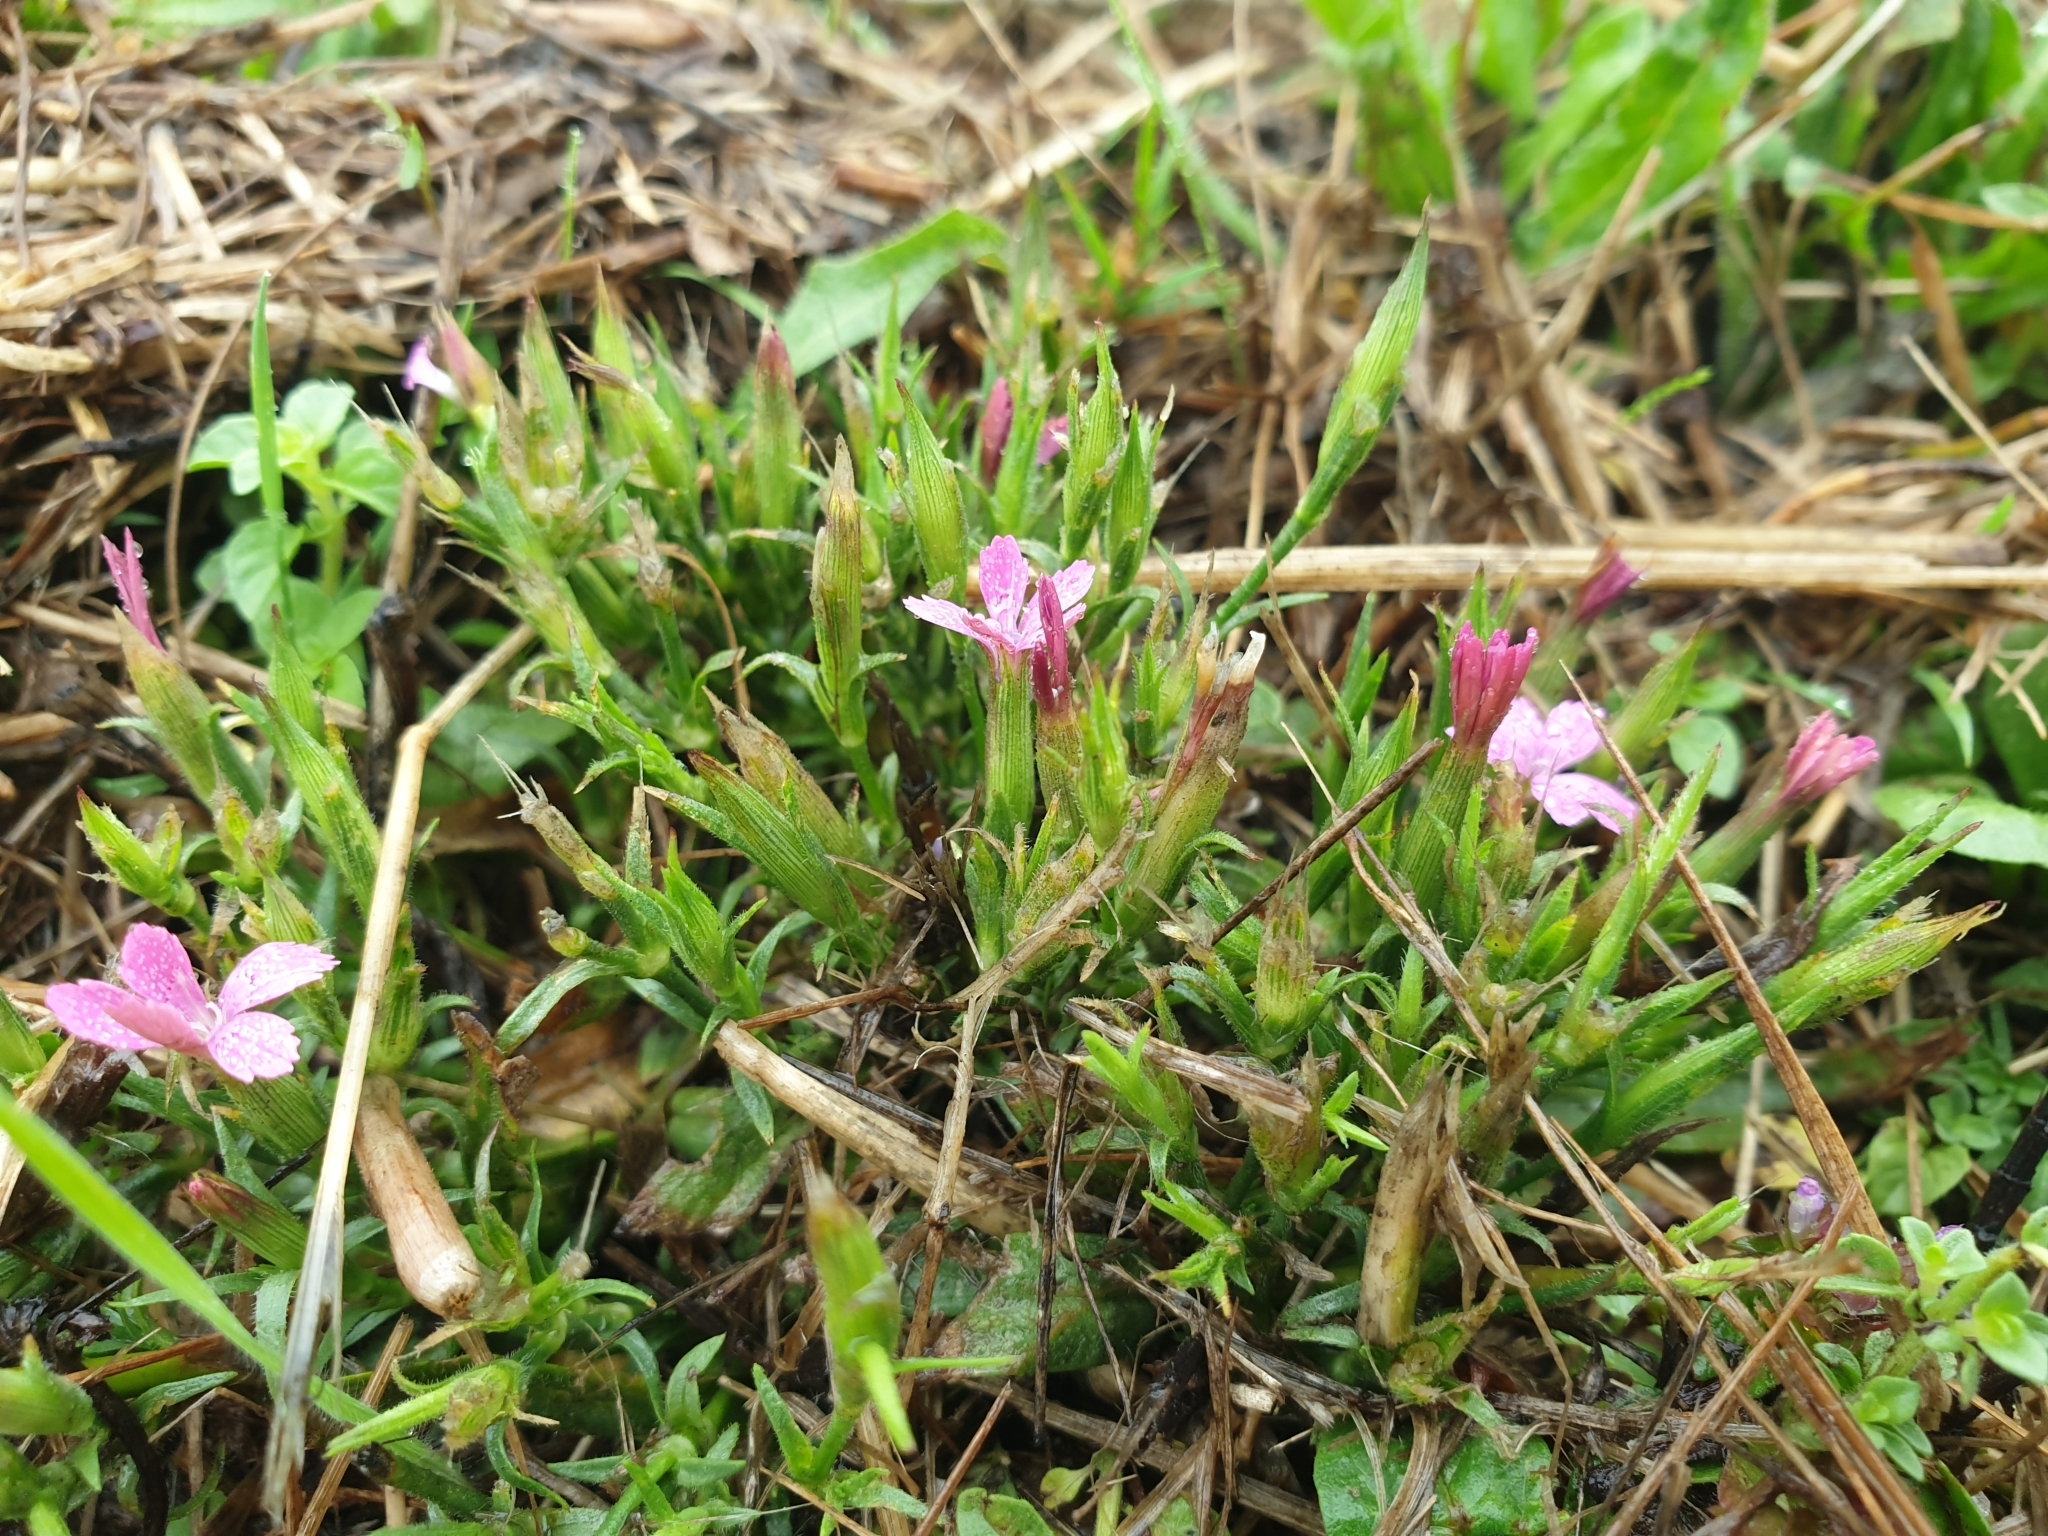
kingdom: Plantae
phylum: Tracheophyta
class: Magnoliopsida
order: Caryophyllales
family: Caryophyllaceae
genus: Dianthus
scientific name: Dianthus armeria
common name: Deptford pink
